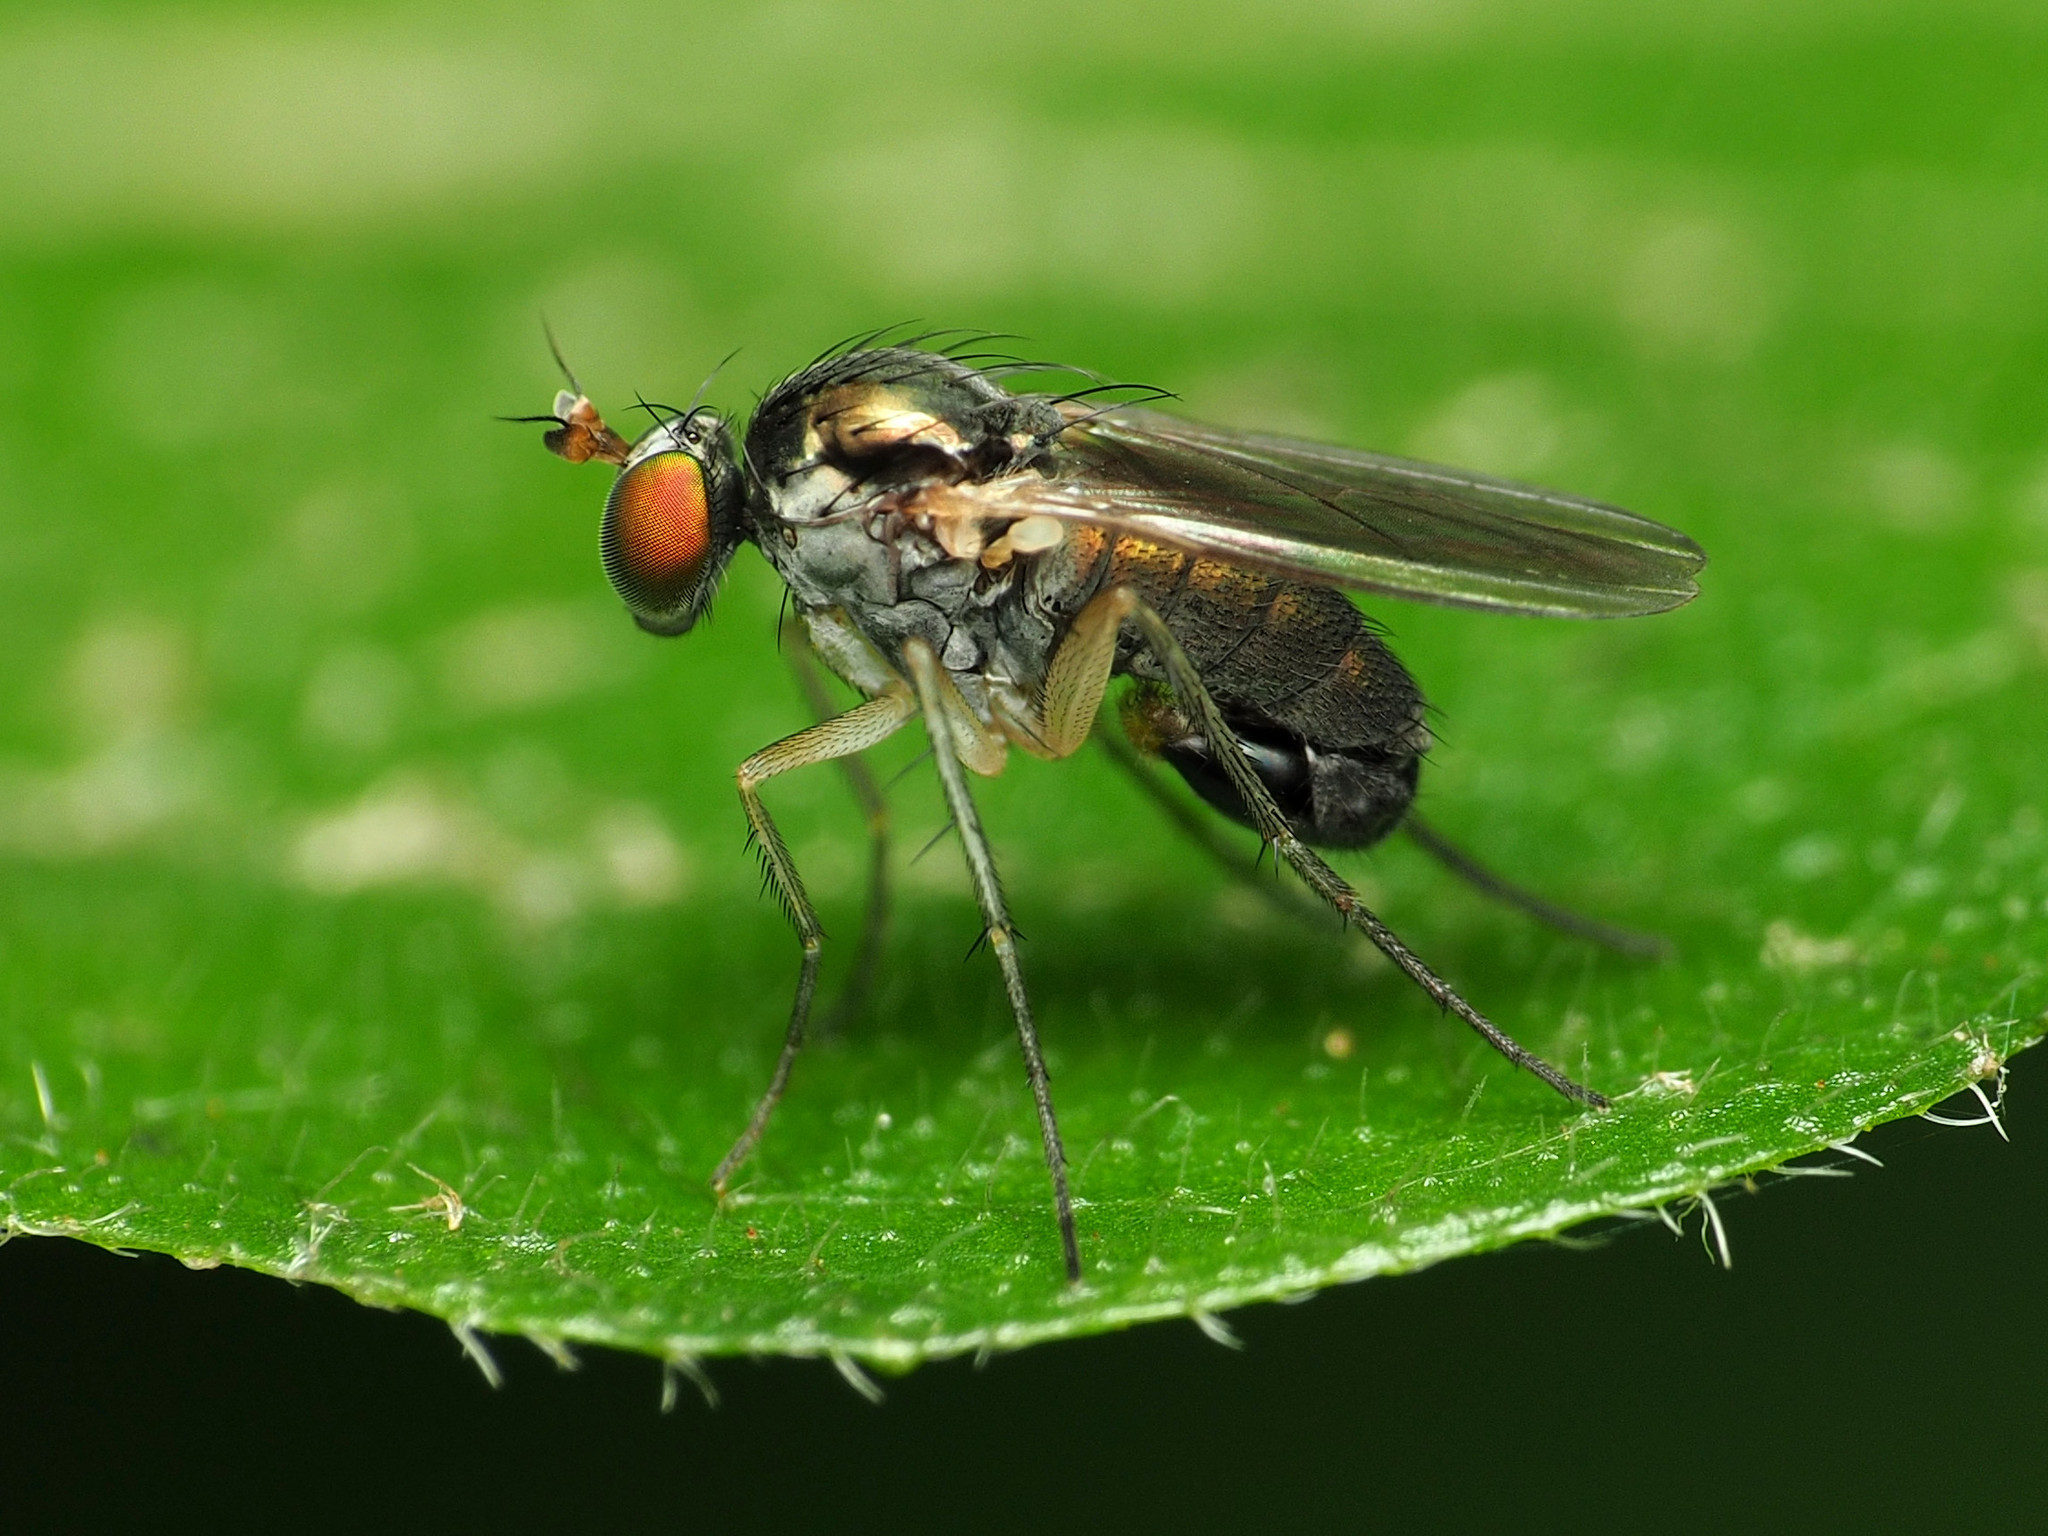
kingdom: Animalia
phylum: Arthropoda
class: Insecta
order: Diptera
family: Dolichopodidae
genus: Gymnopternus
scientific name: Gymnopternus politus
